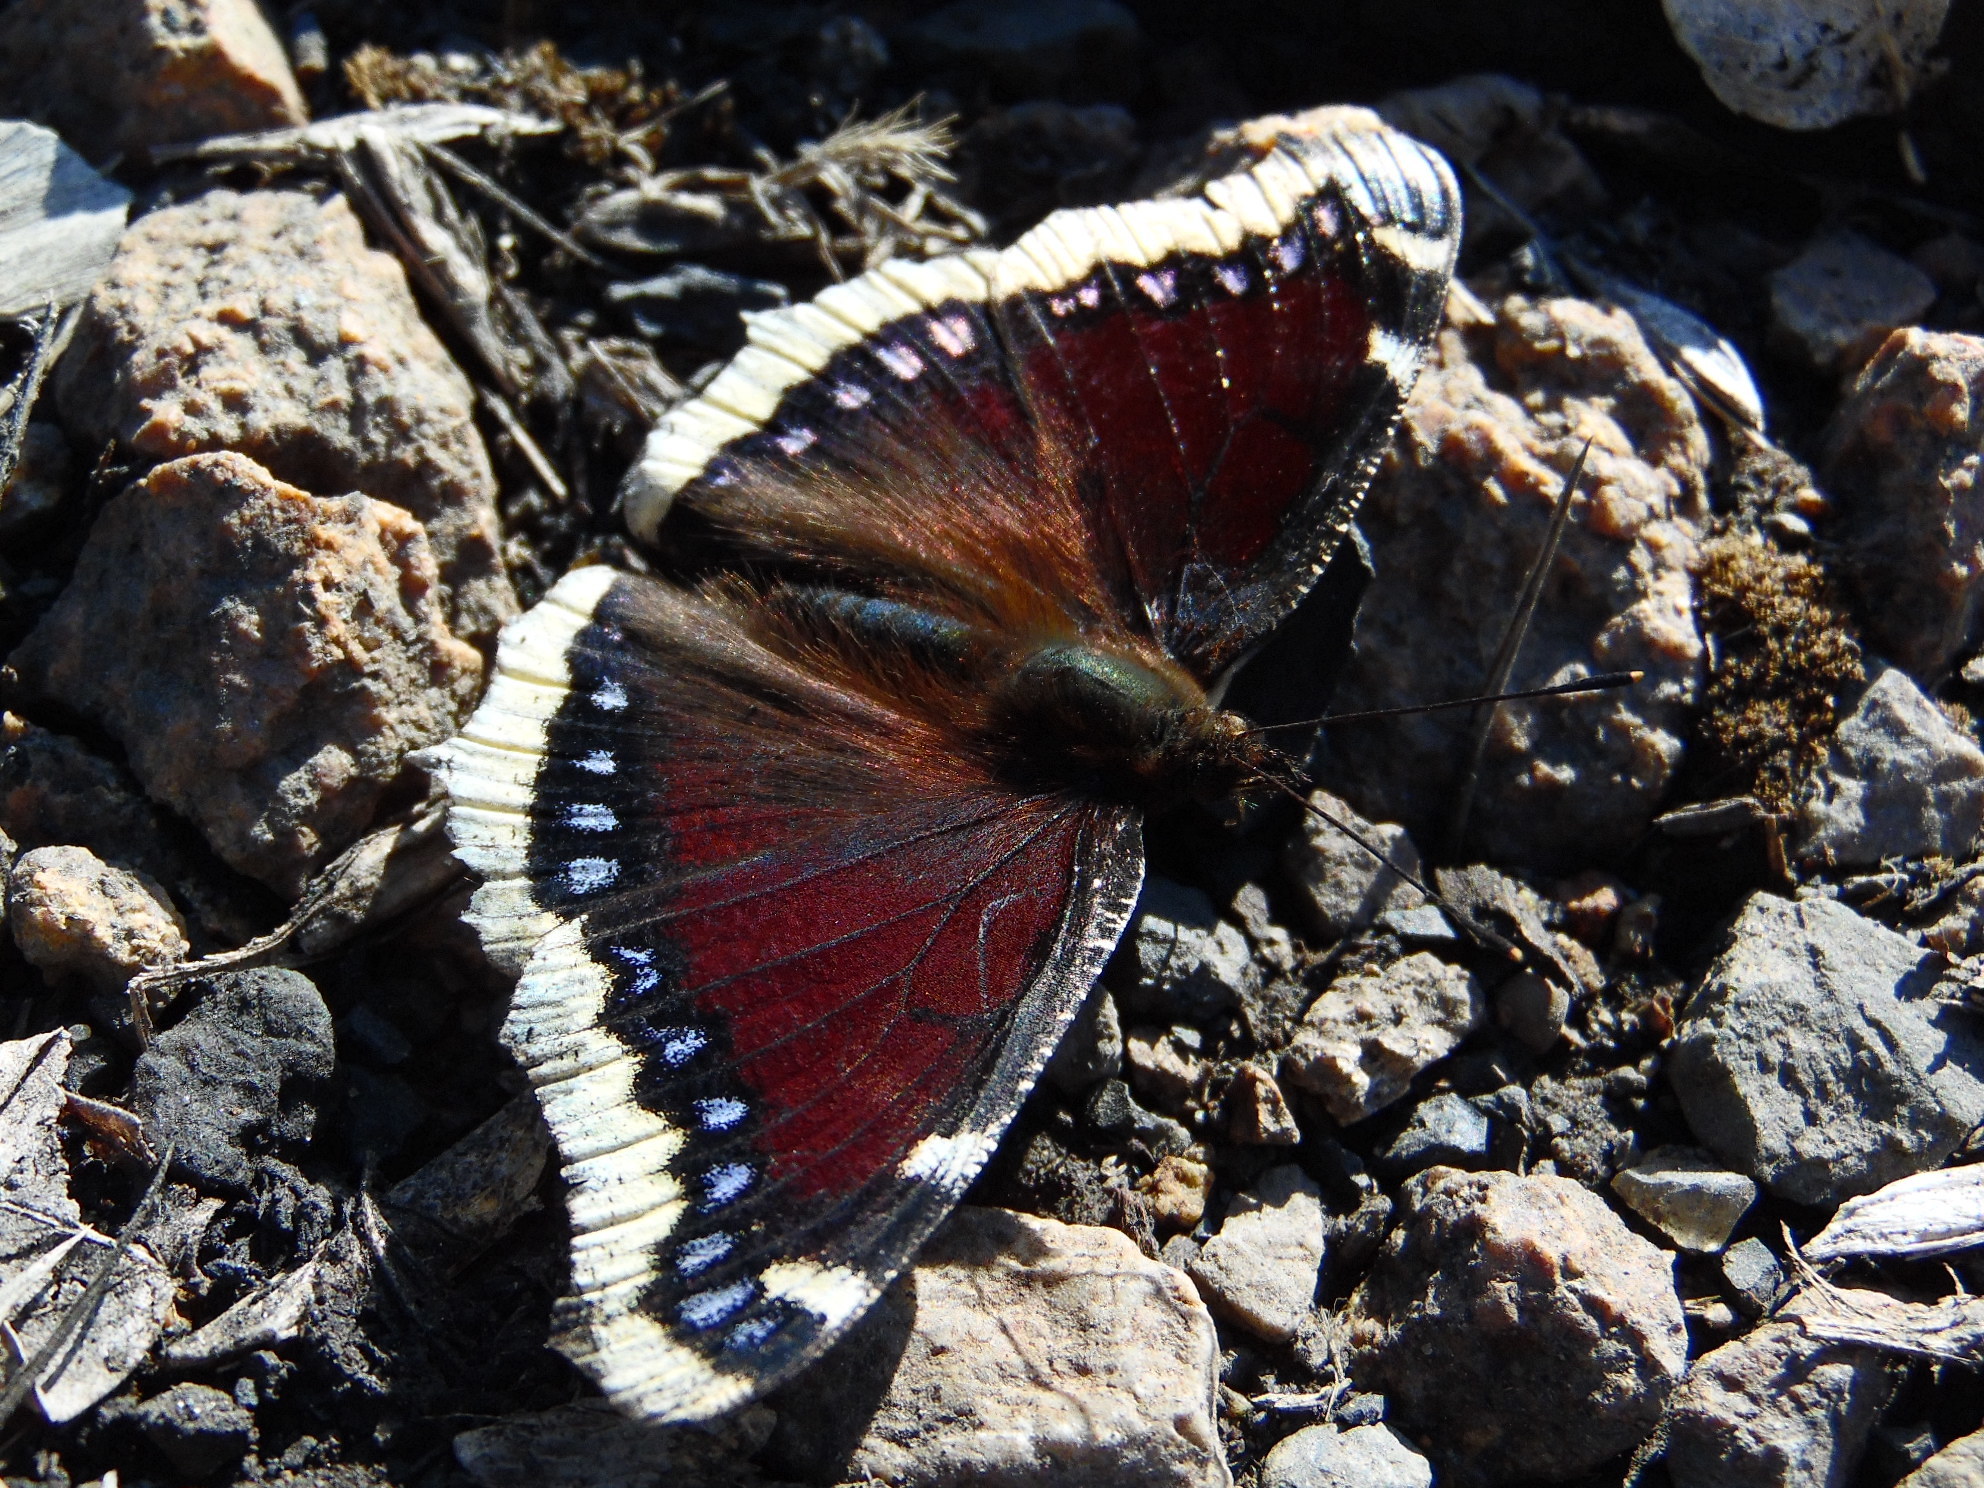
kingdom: Animalia
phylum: Arthropoda
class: Insecta
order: Lepidoptera
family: Nymphalidae
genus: Nymphalis
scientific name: Nymphalis antiopa
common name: Camberwell beauty
